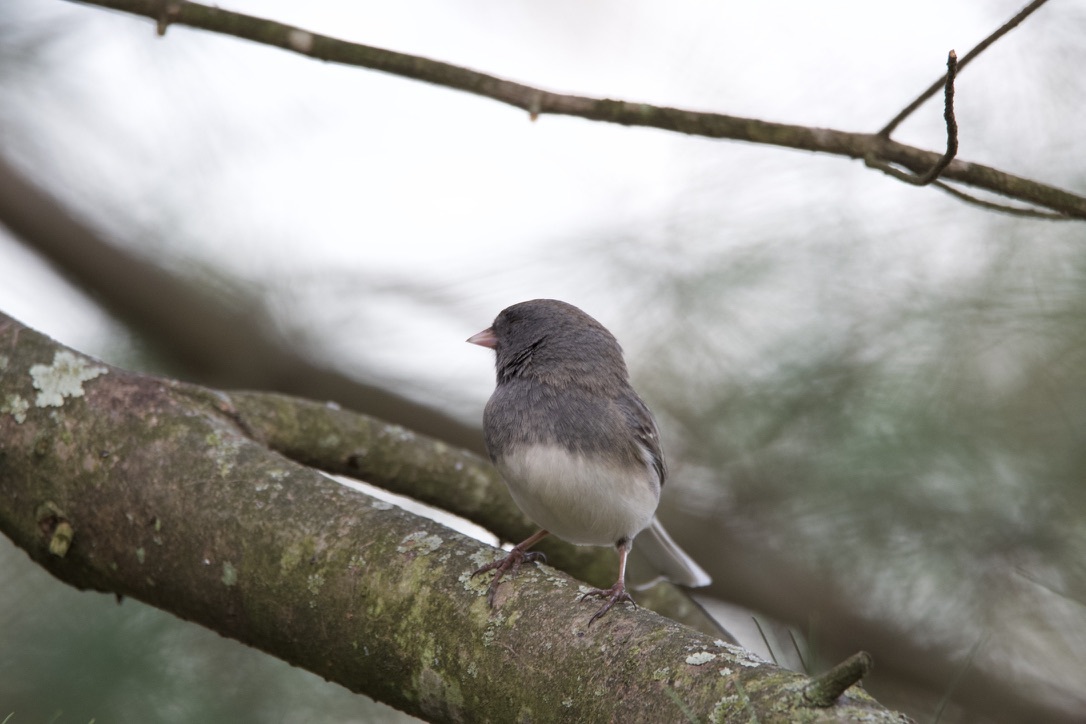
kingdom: Animalia
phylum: Chordata
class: Aves
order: Passeriformes
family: Passerellidae
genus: Junco
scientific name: Junco hyemalis
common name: Dark-eyed junco
